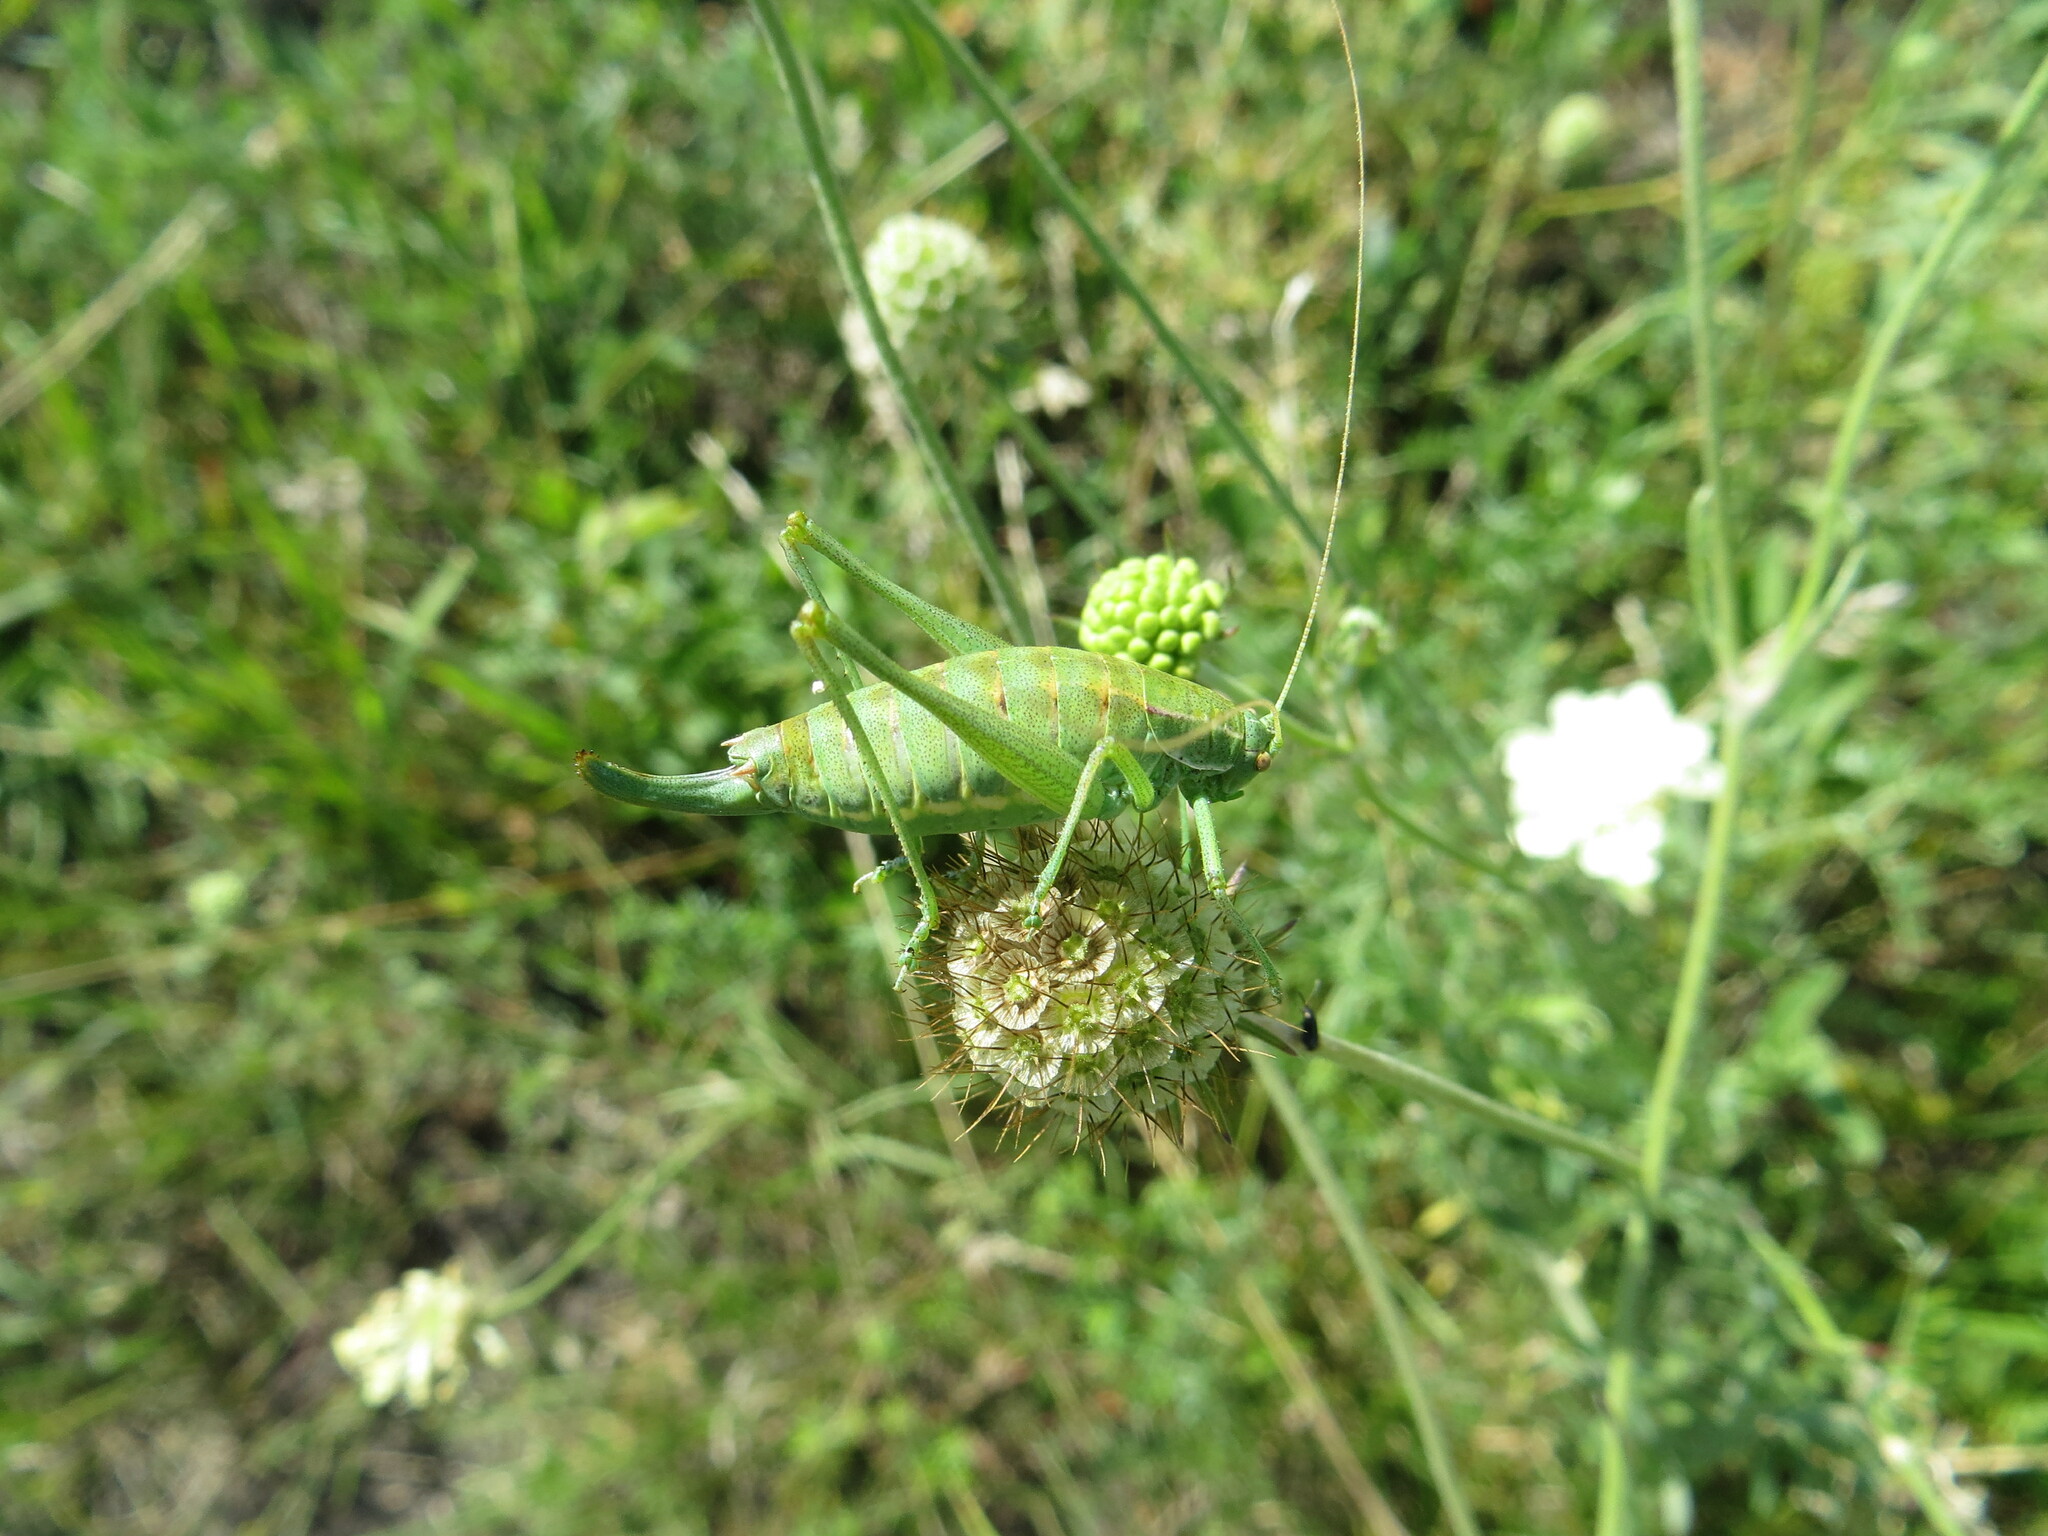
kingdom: Animalia
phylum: Arthropoda
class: Insecta
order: Orthoptera
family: Tettigoniidae
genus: Poecilimon
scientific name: Poecilimon intermedius
